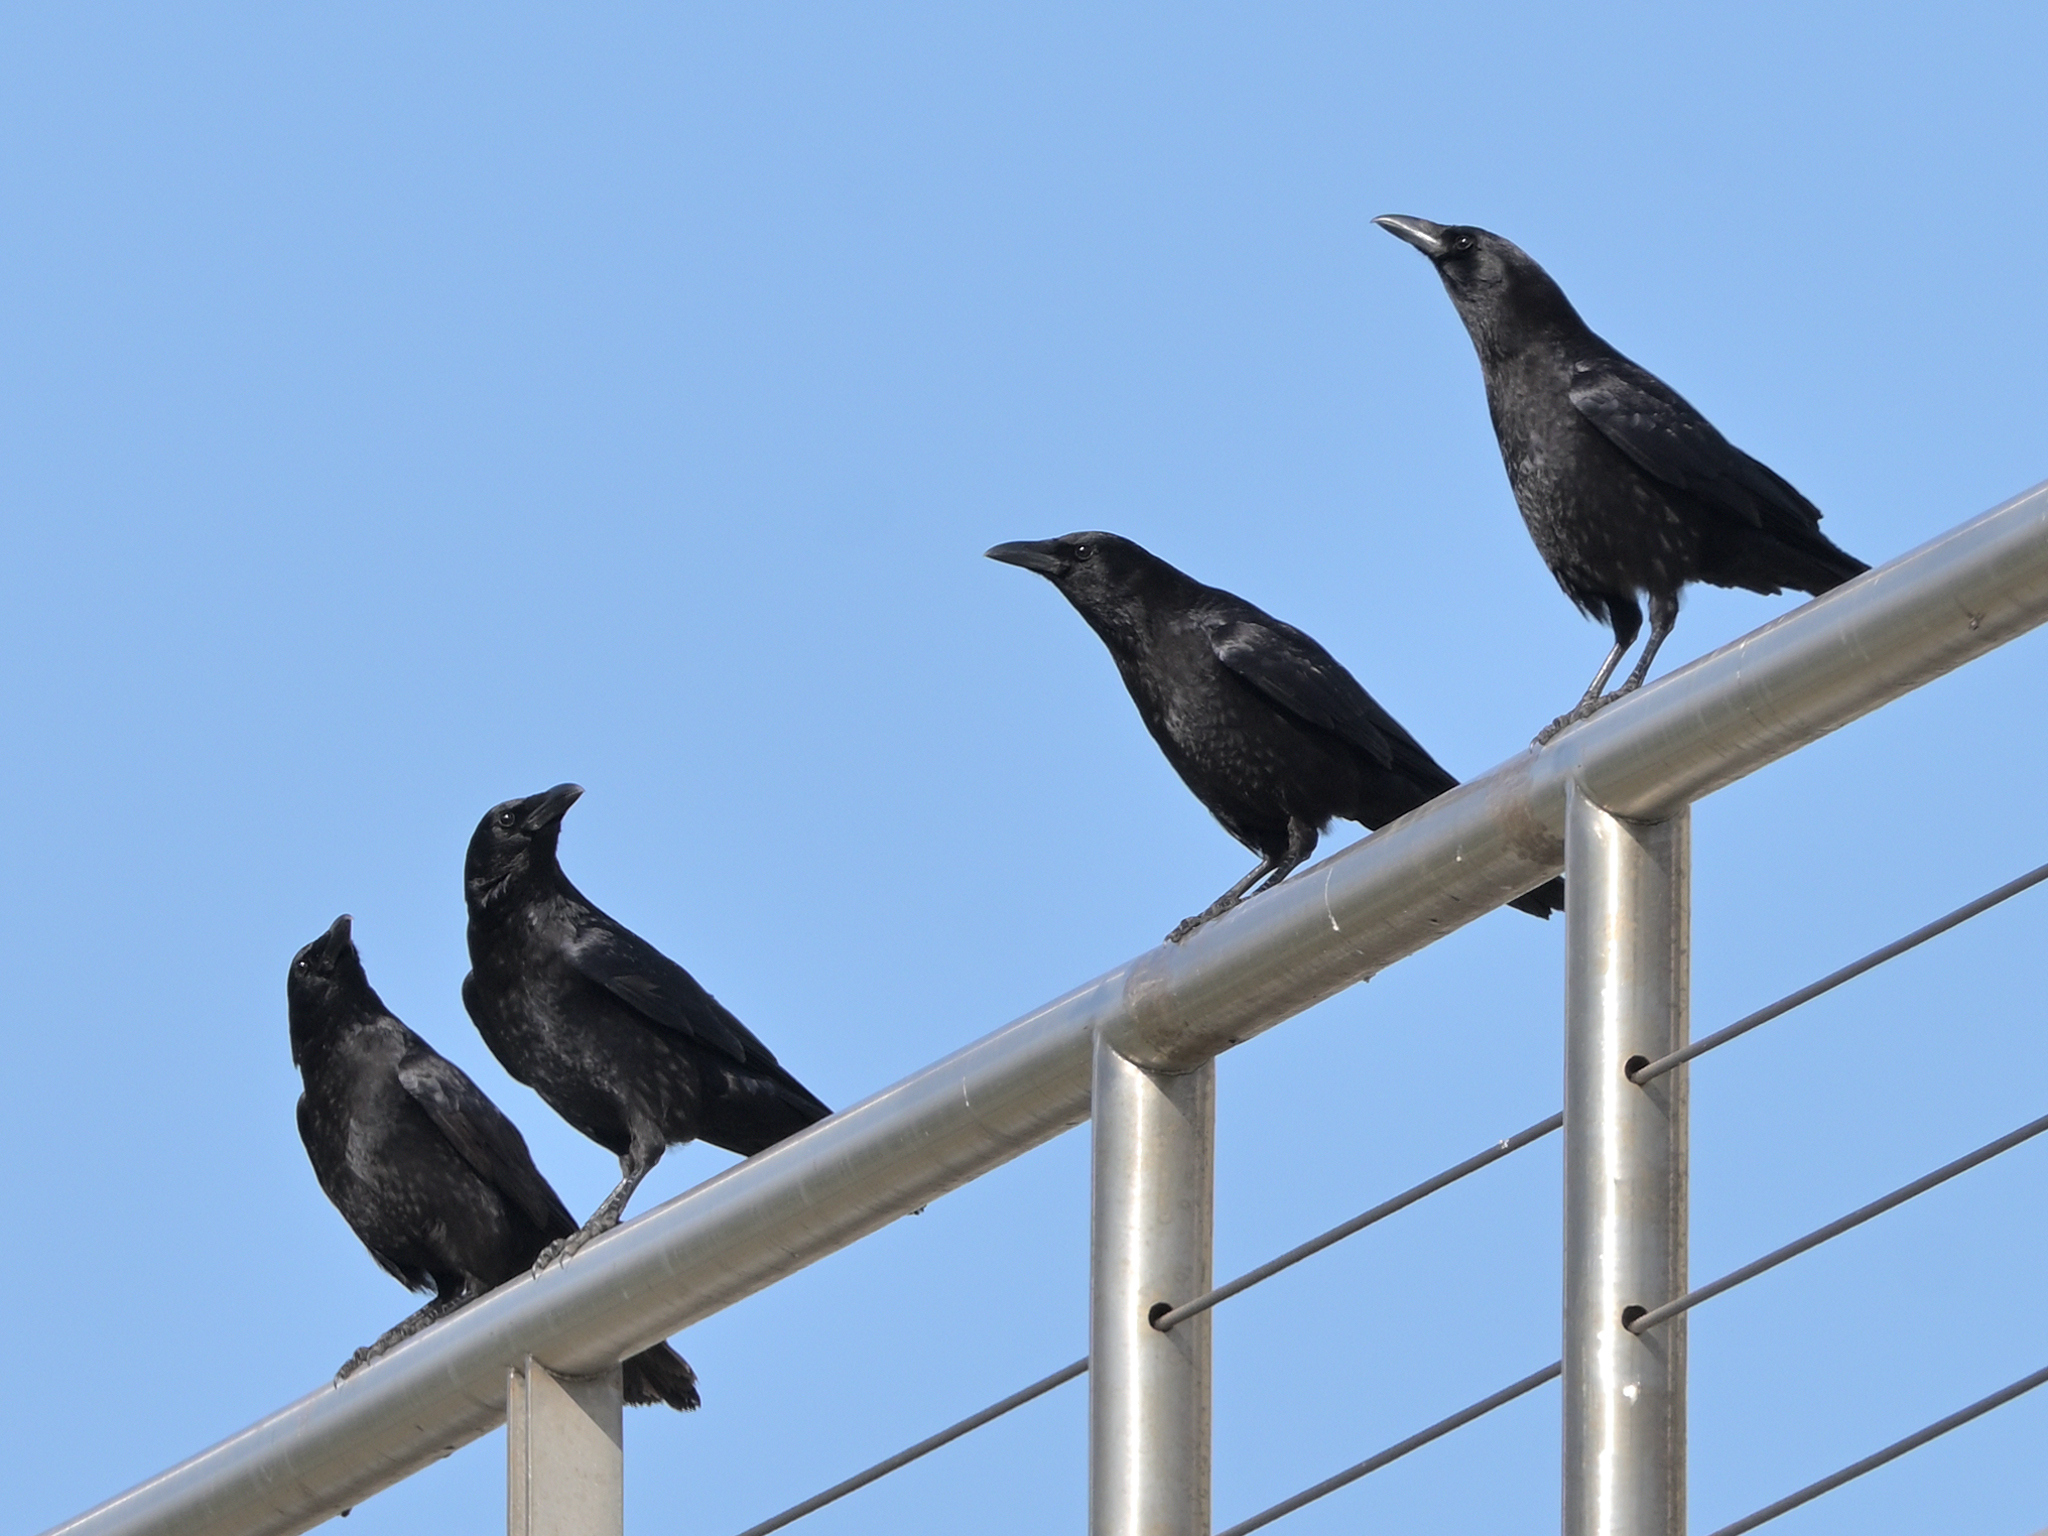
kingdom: Animalia
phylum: Chordata
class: Aves
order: Passeriformes
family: Corvidae
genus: Corvus
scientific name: Corvus corone
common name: Carrion crow
